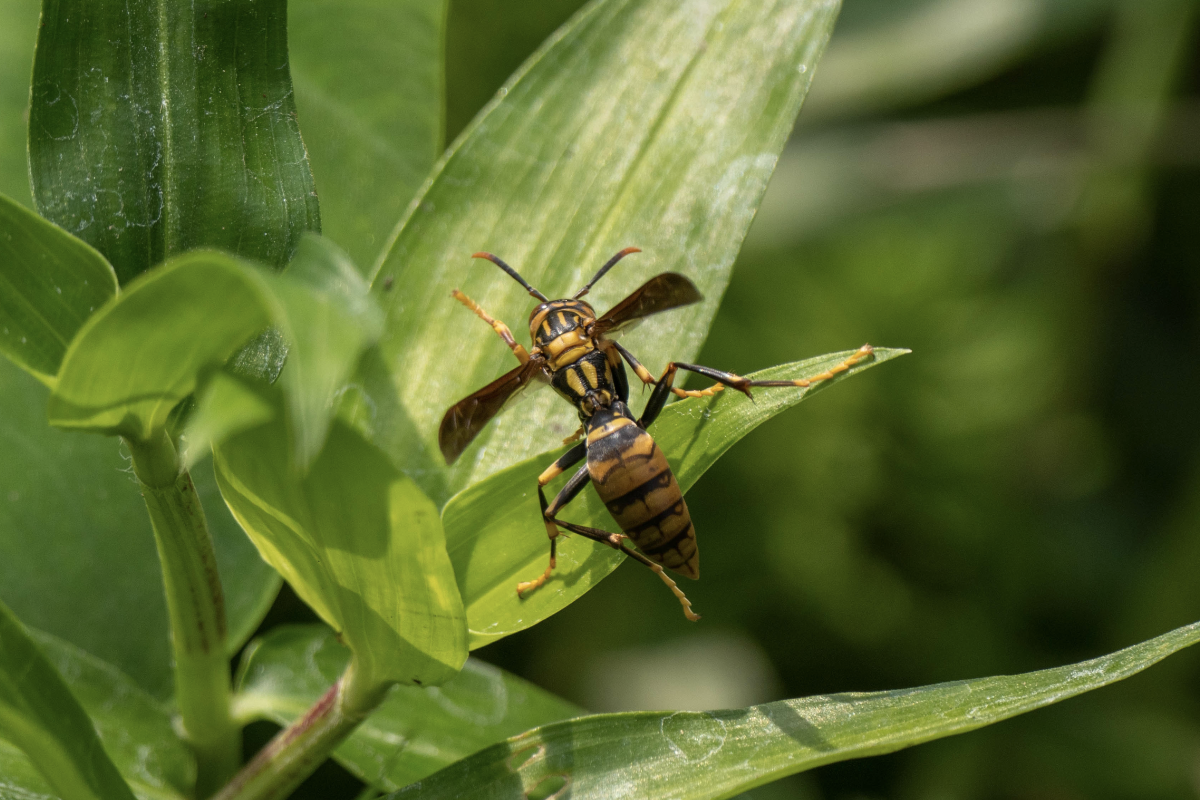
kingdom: Animalia
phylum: Arthropoda
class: Insecta
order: Hymenoptera
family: Eumenidae
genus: Polistes
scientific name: Polistes rothneyi
